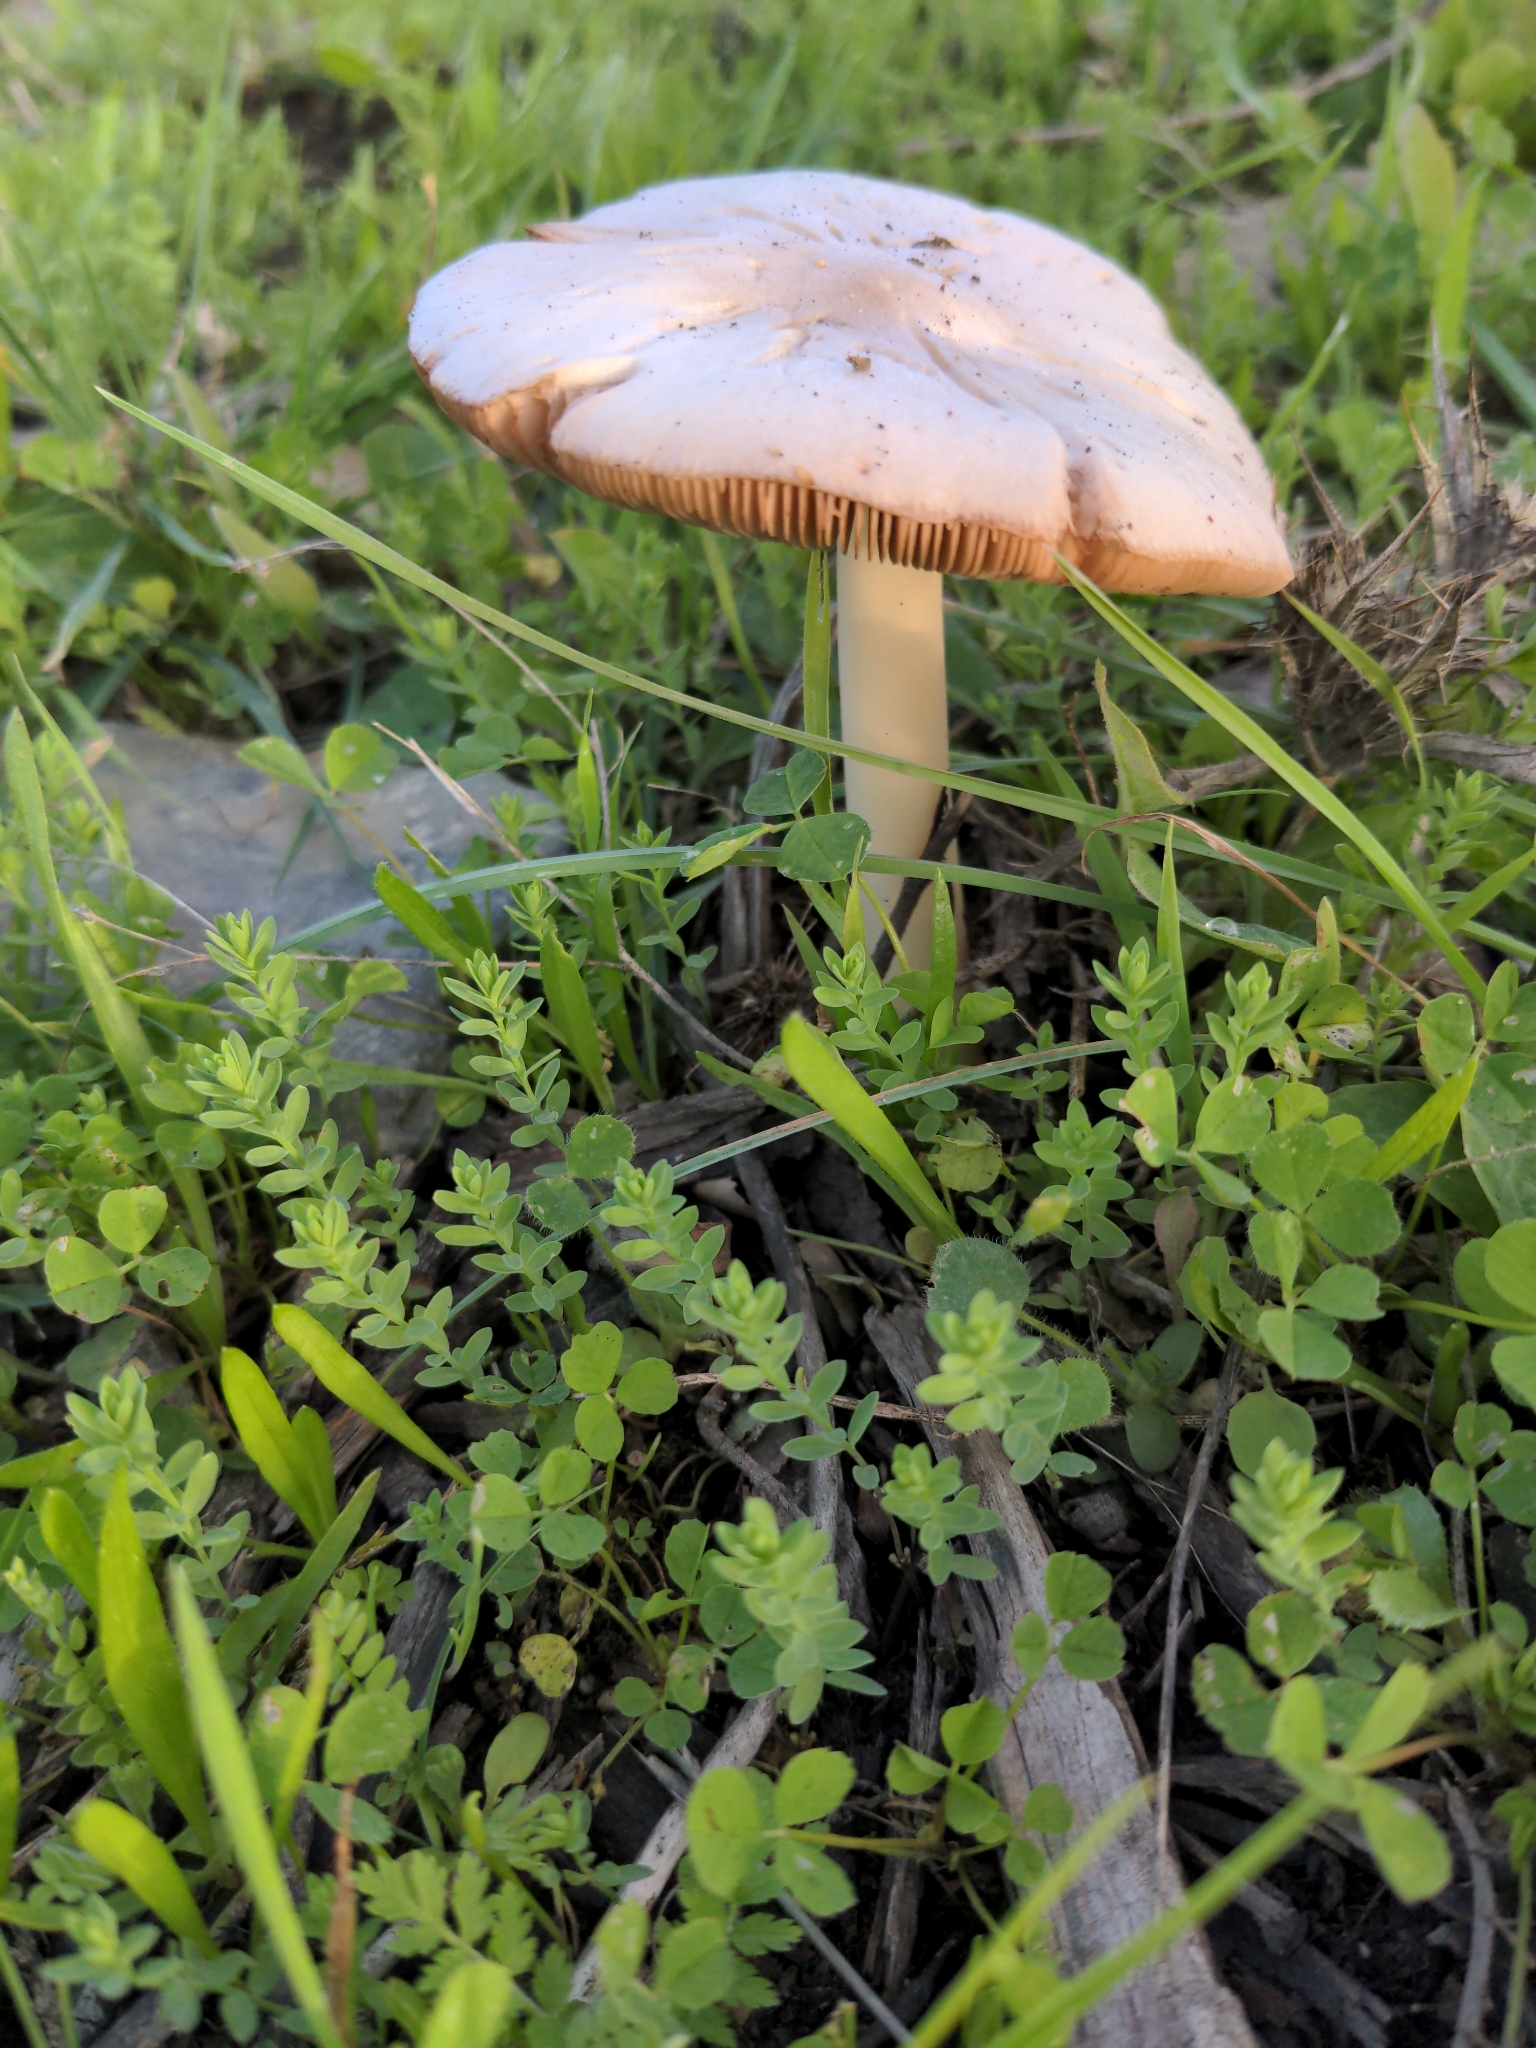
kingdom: Fungi
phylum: Basidiomycota
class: Agaricomycetes
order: Agaricales
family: Pluteaceae
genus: Volvopluteus
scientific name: Volvopluteus gloiocephalus
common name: Stubble rosegill
